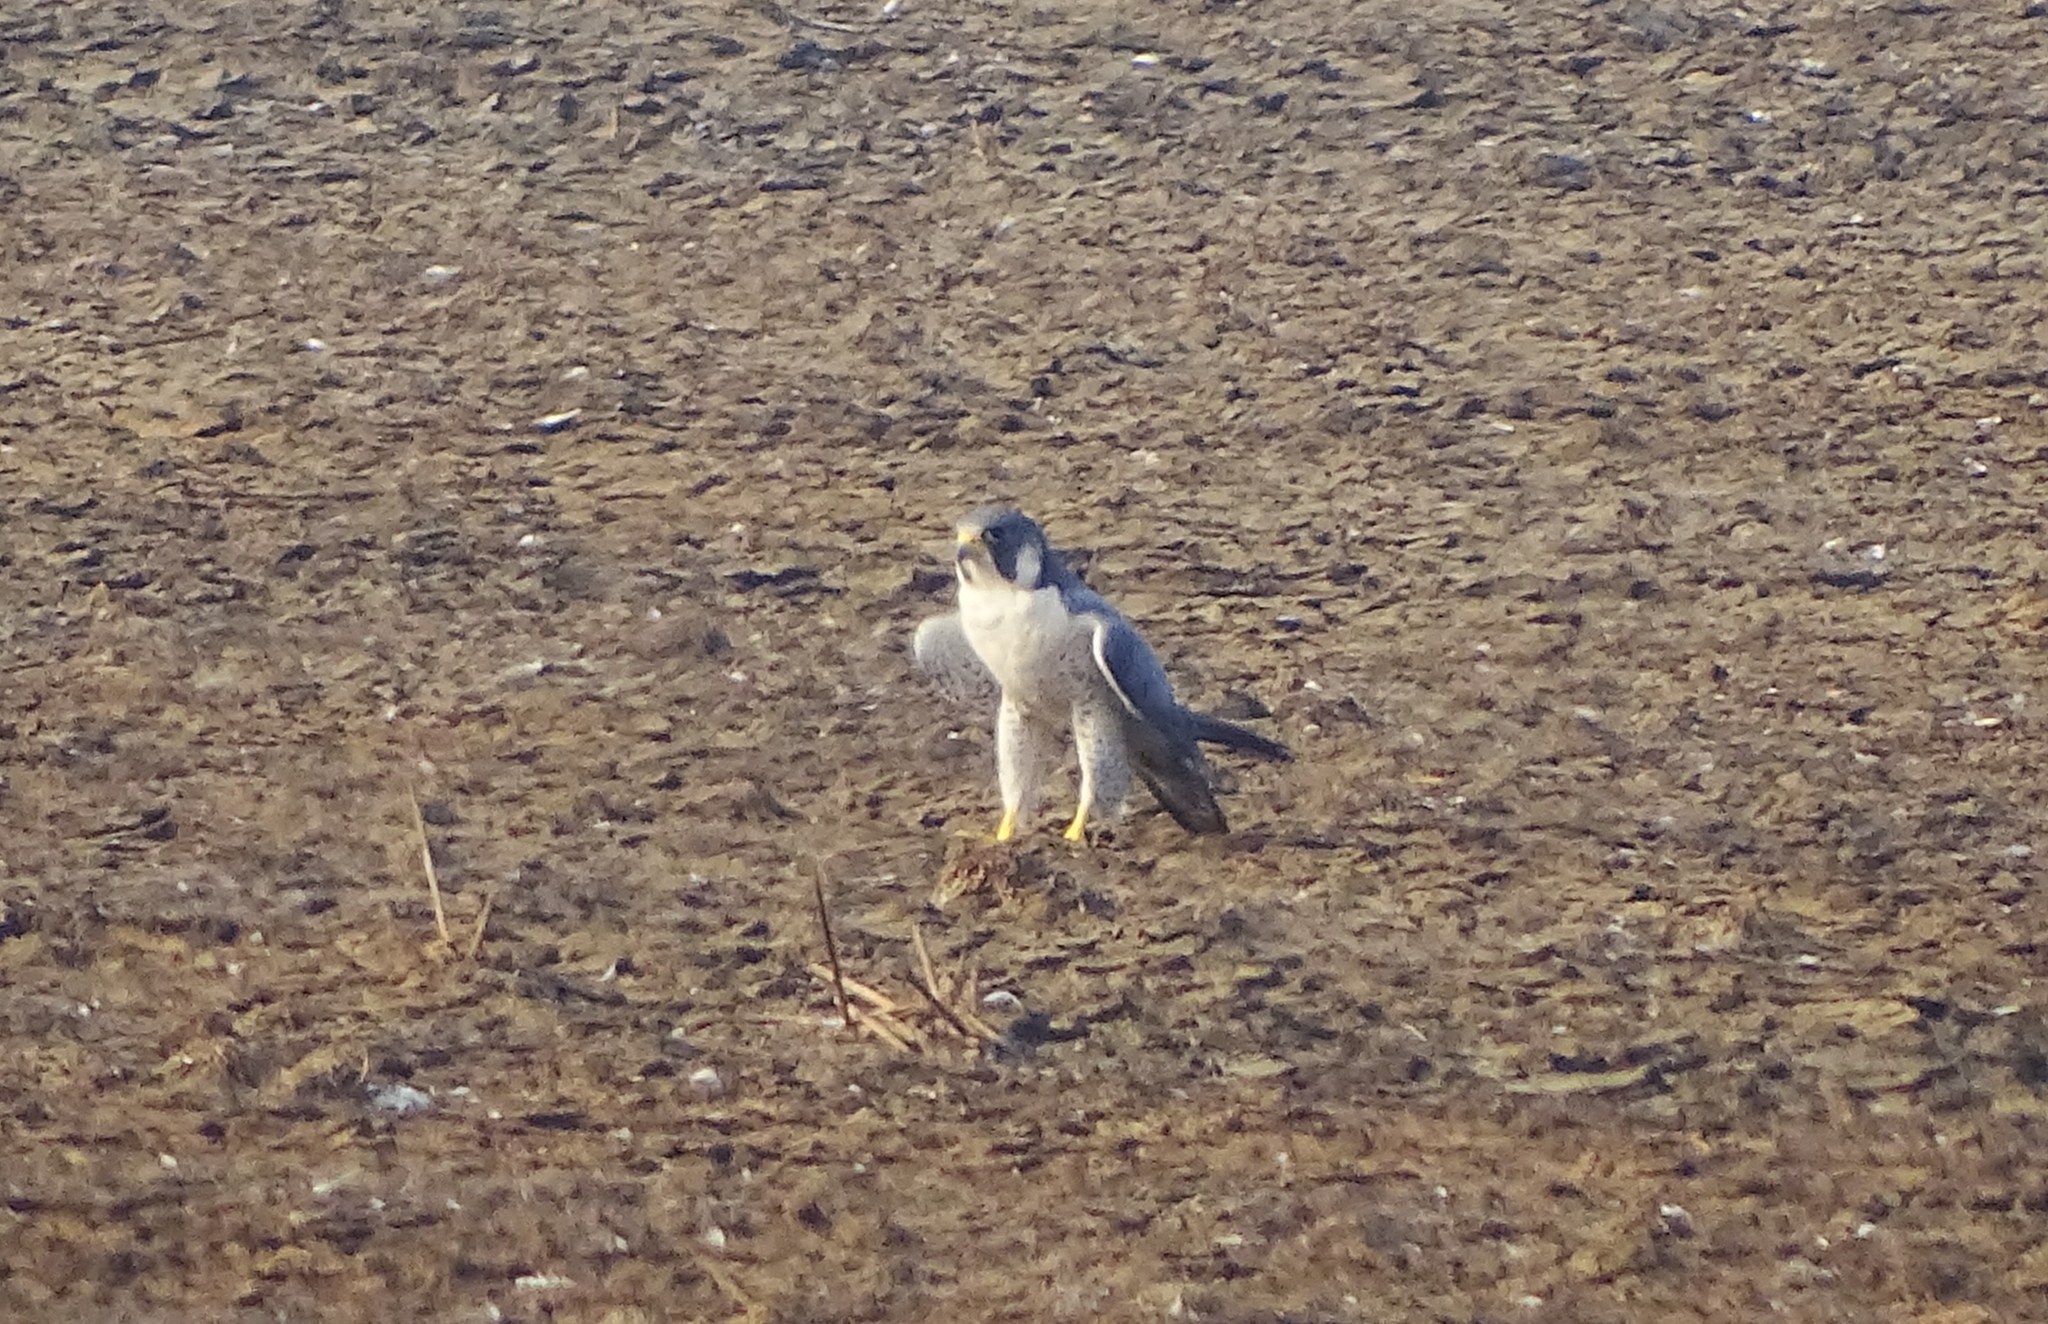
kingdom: Animalia
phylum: Chordata
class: Aves
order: Falconiformes
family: Falconidae
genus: Falco
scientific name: Falco peregrinus
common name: Peregrine falcon
